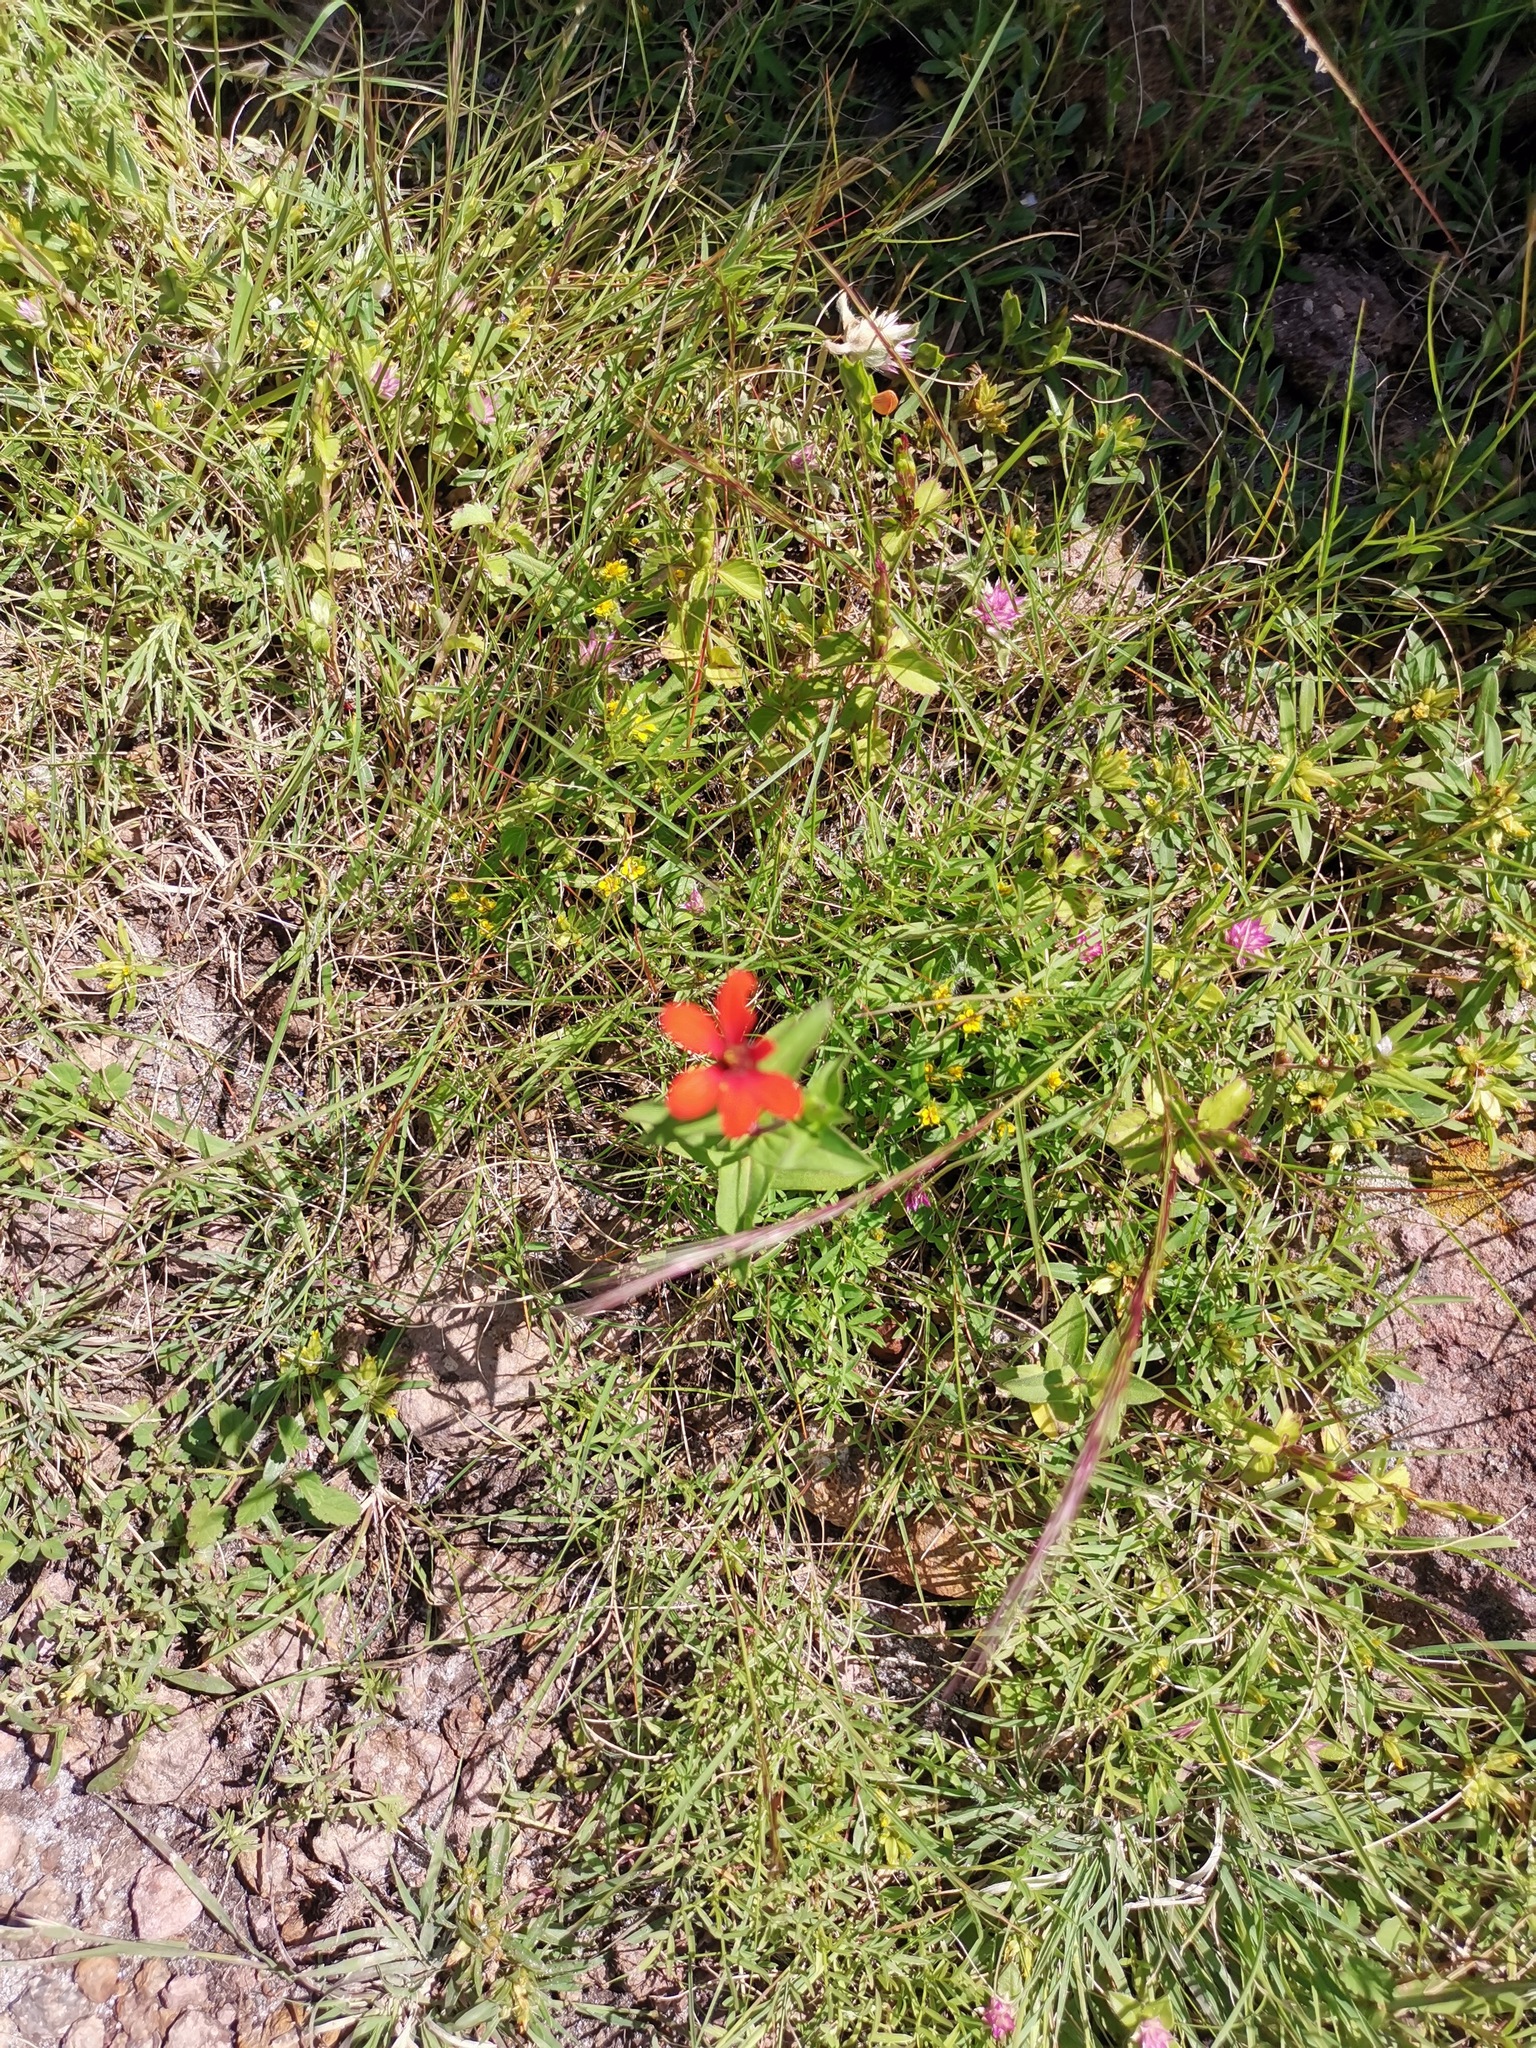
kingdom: Plantae
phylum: Tracheophyta
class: Magnoliopsida
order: Asterales
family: Asteraceae
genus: Zinnia
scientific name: Zinnia peruviana
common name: Peruvian zinnia
